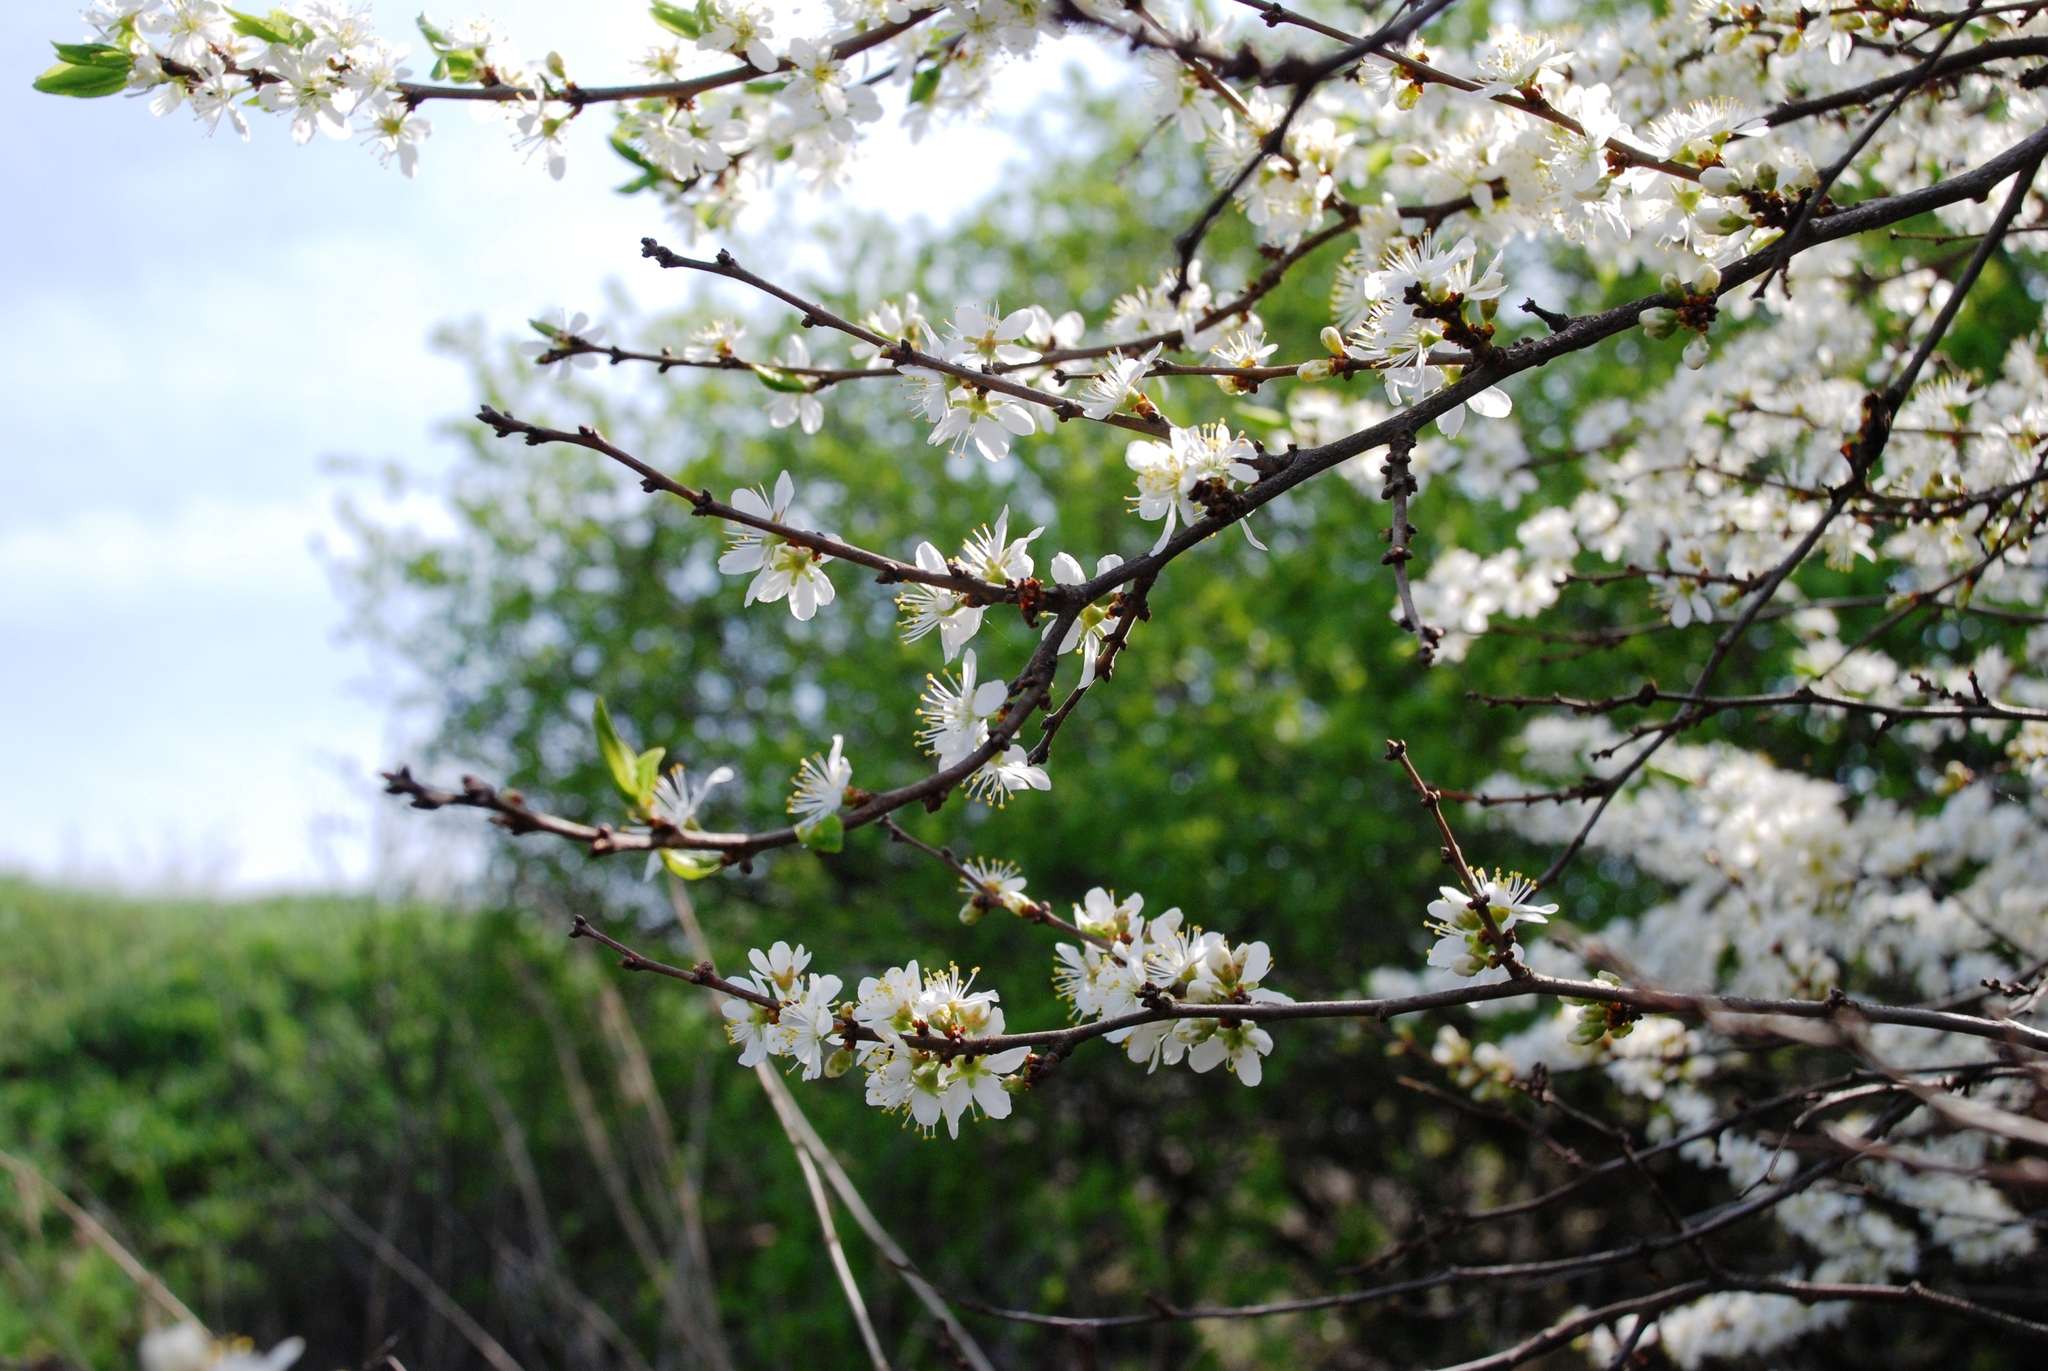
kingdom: Plantae
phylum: Tracheophyta
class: Magnoliopsida
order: Rosales
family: Rosaceae
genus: Prunus
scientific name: Prunus spinosa
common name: Blackthorn
